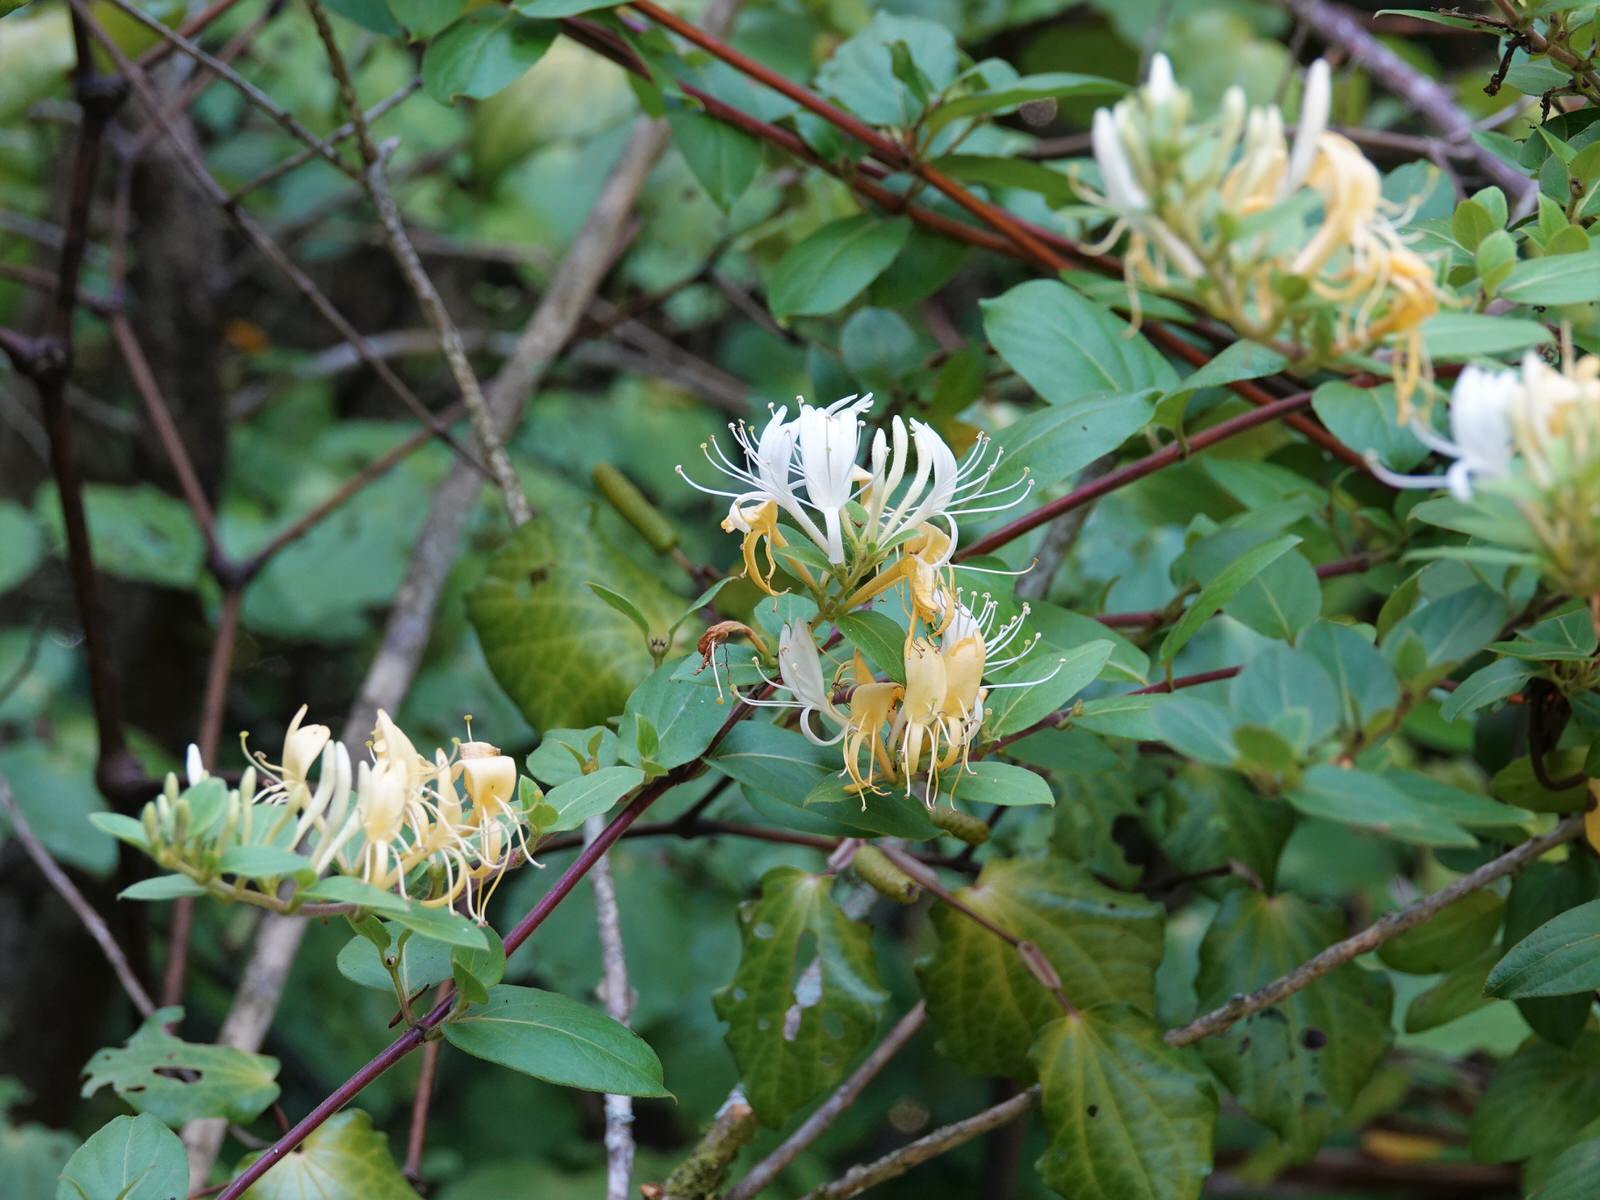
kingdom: Plantae
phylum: Tracheophyta
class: Magnoliopsida
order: Dipsacales
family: Caprifoliaceae
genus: Lonicera
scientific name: Lonicera japonica
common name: Japanese honeysuckle
